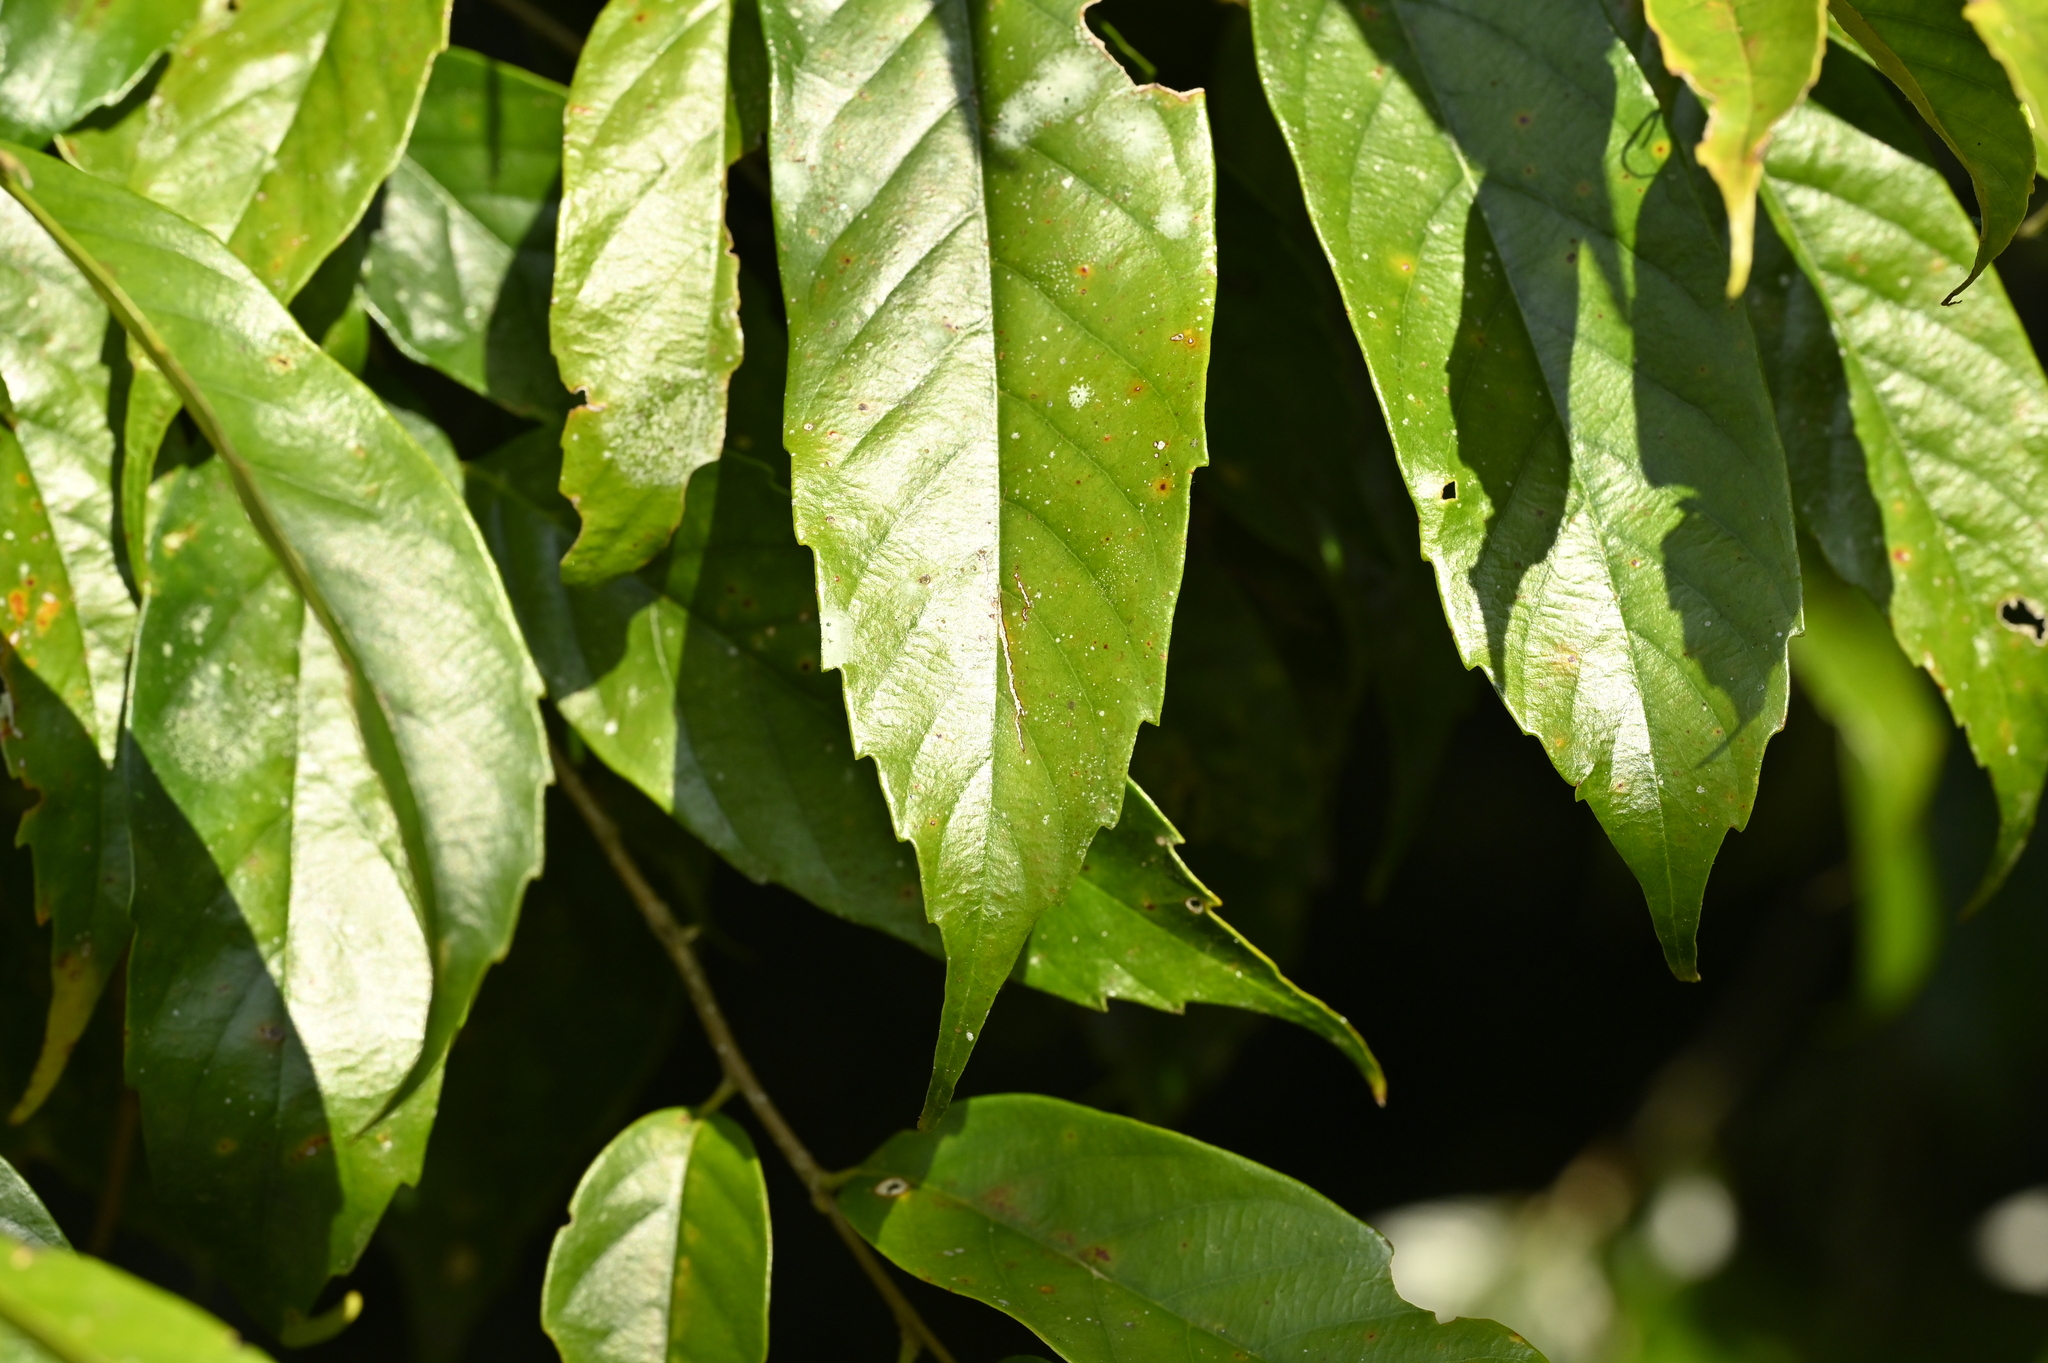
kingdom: Plantae
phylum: Tracheophyta
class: Magnoliopsida
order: Fagales
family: Fagaceae
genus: Castanopsis
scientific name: Castanopsis faberi
